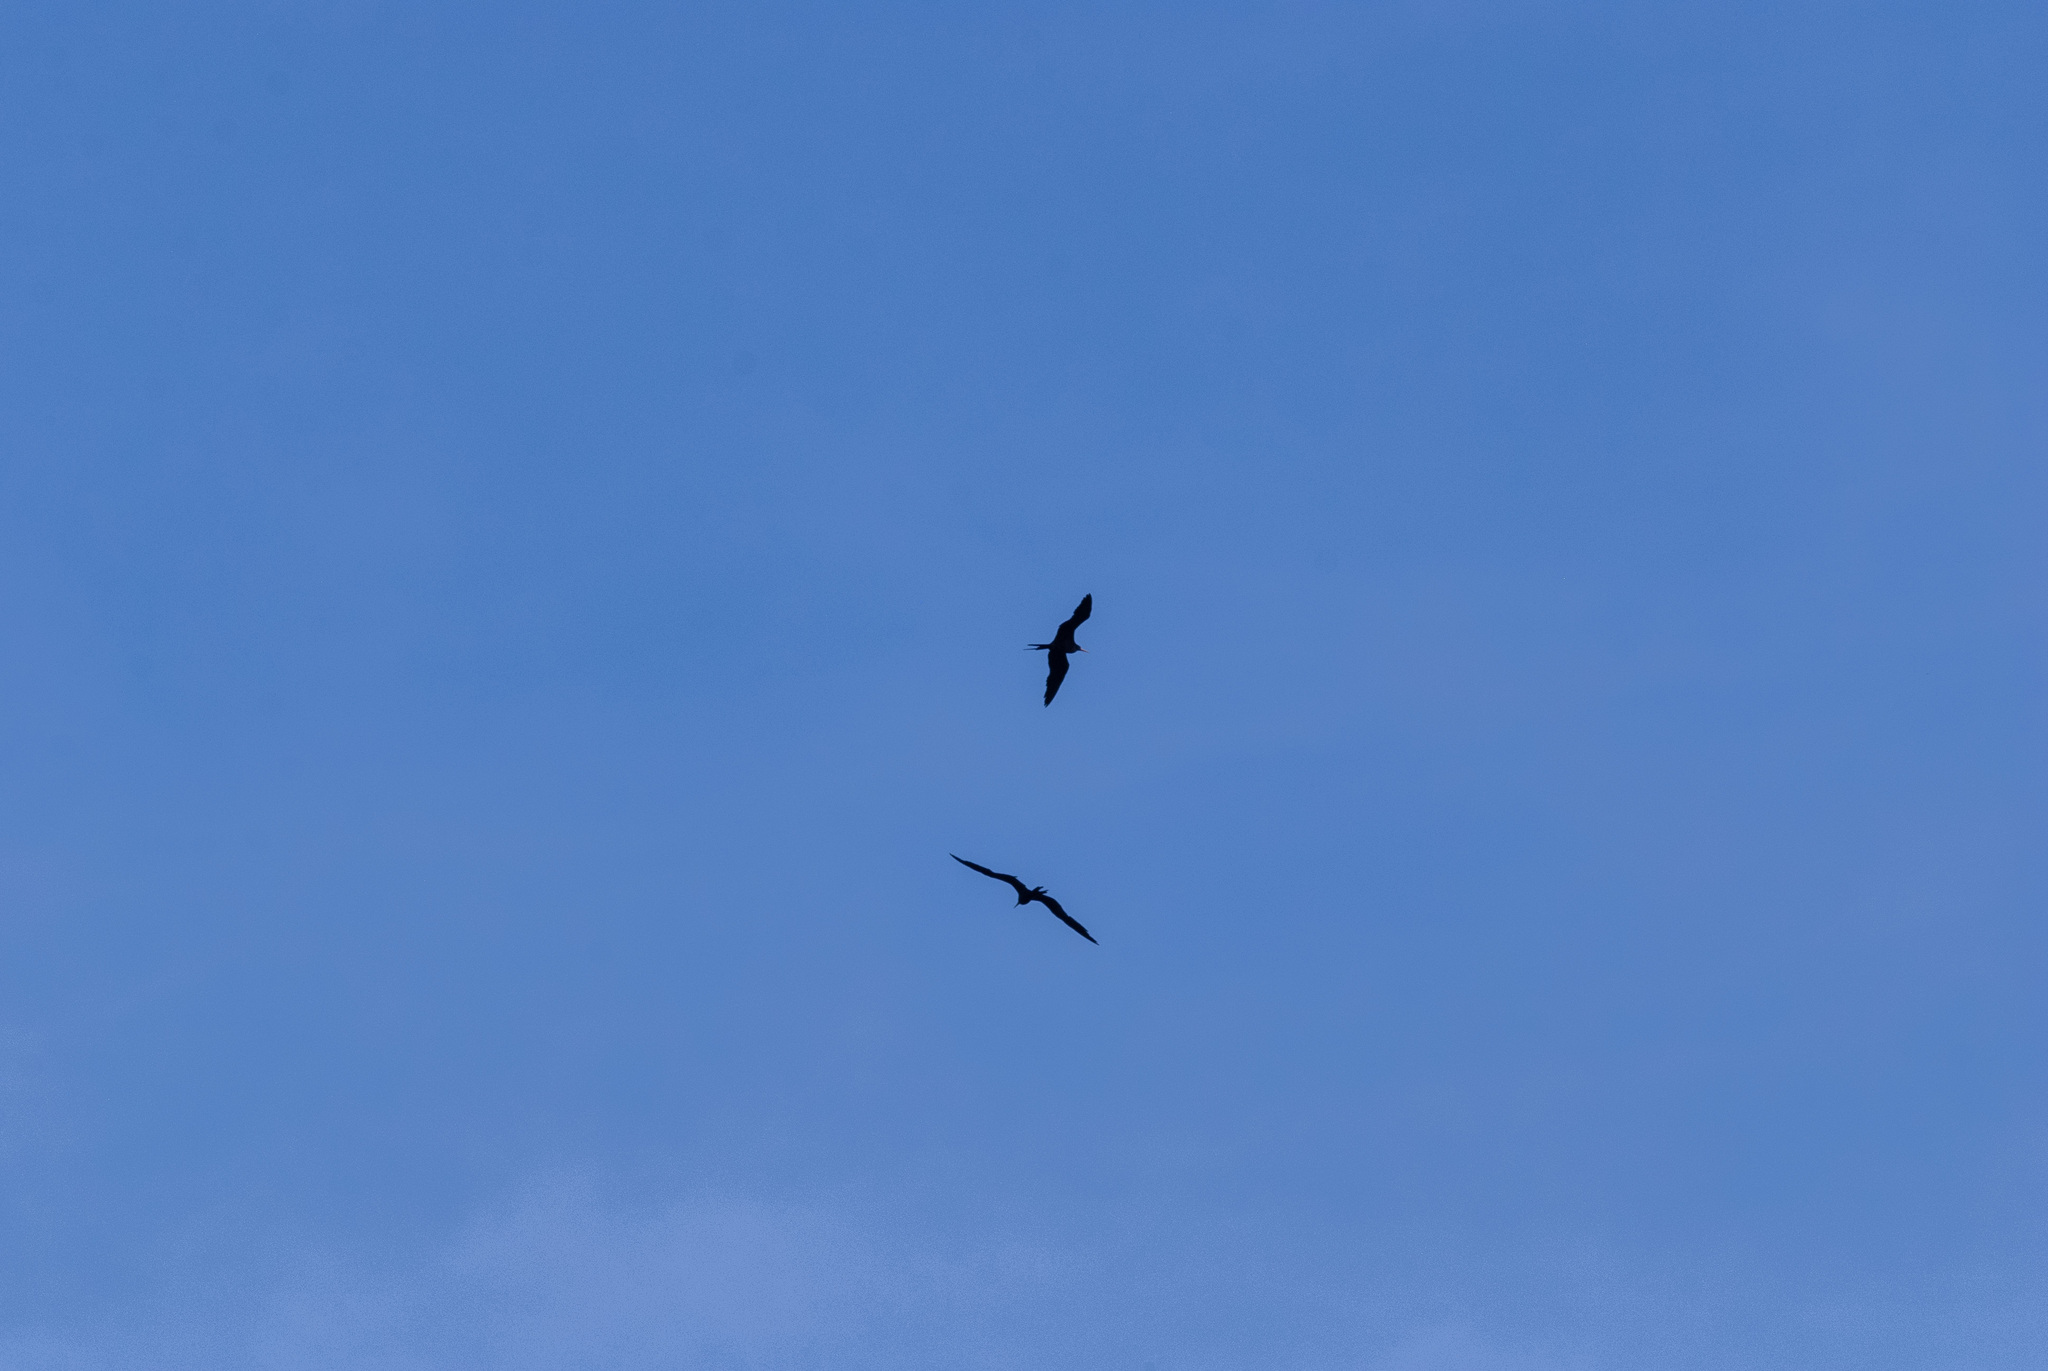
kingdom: Animalia
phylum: Chordata
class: Aves
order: Suliformes
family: Fregatidae
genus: Fregata
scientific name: Fregata magnificens
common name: Magnificent frigatebird
